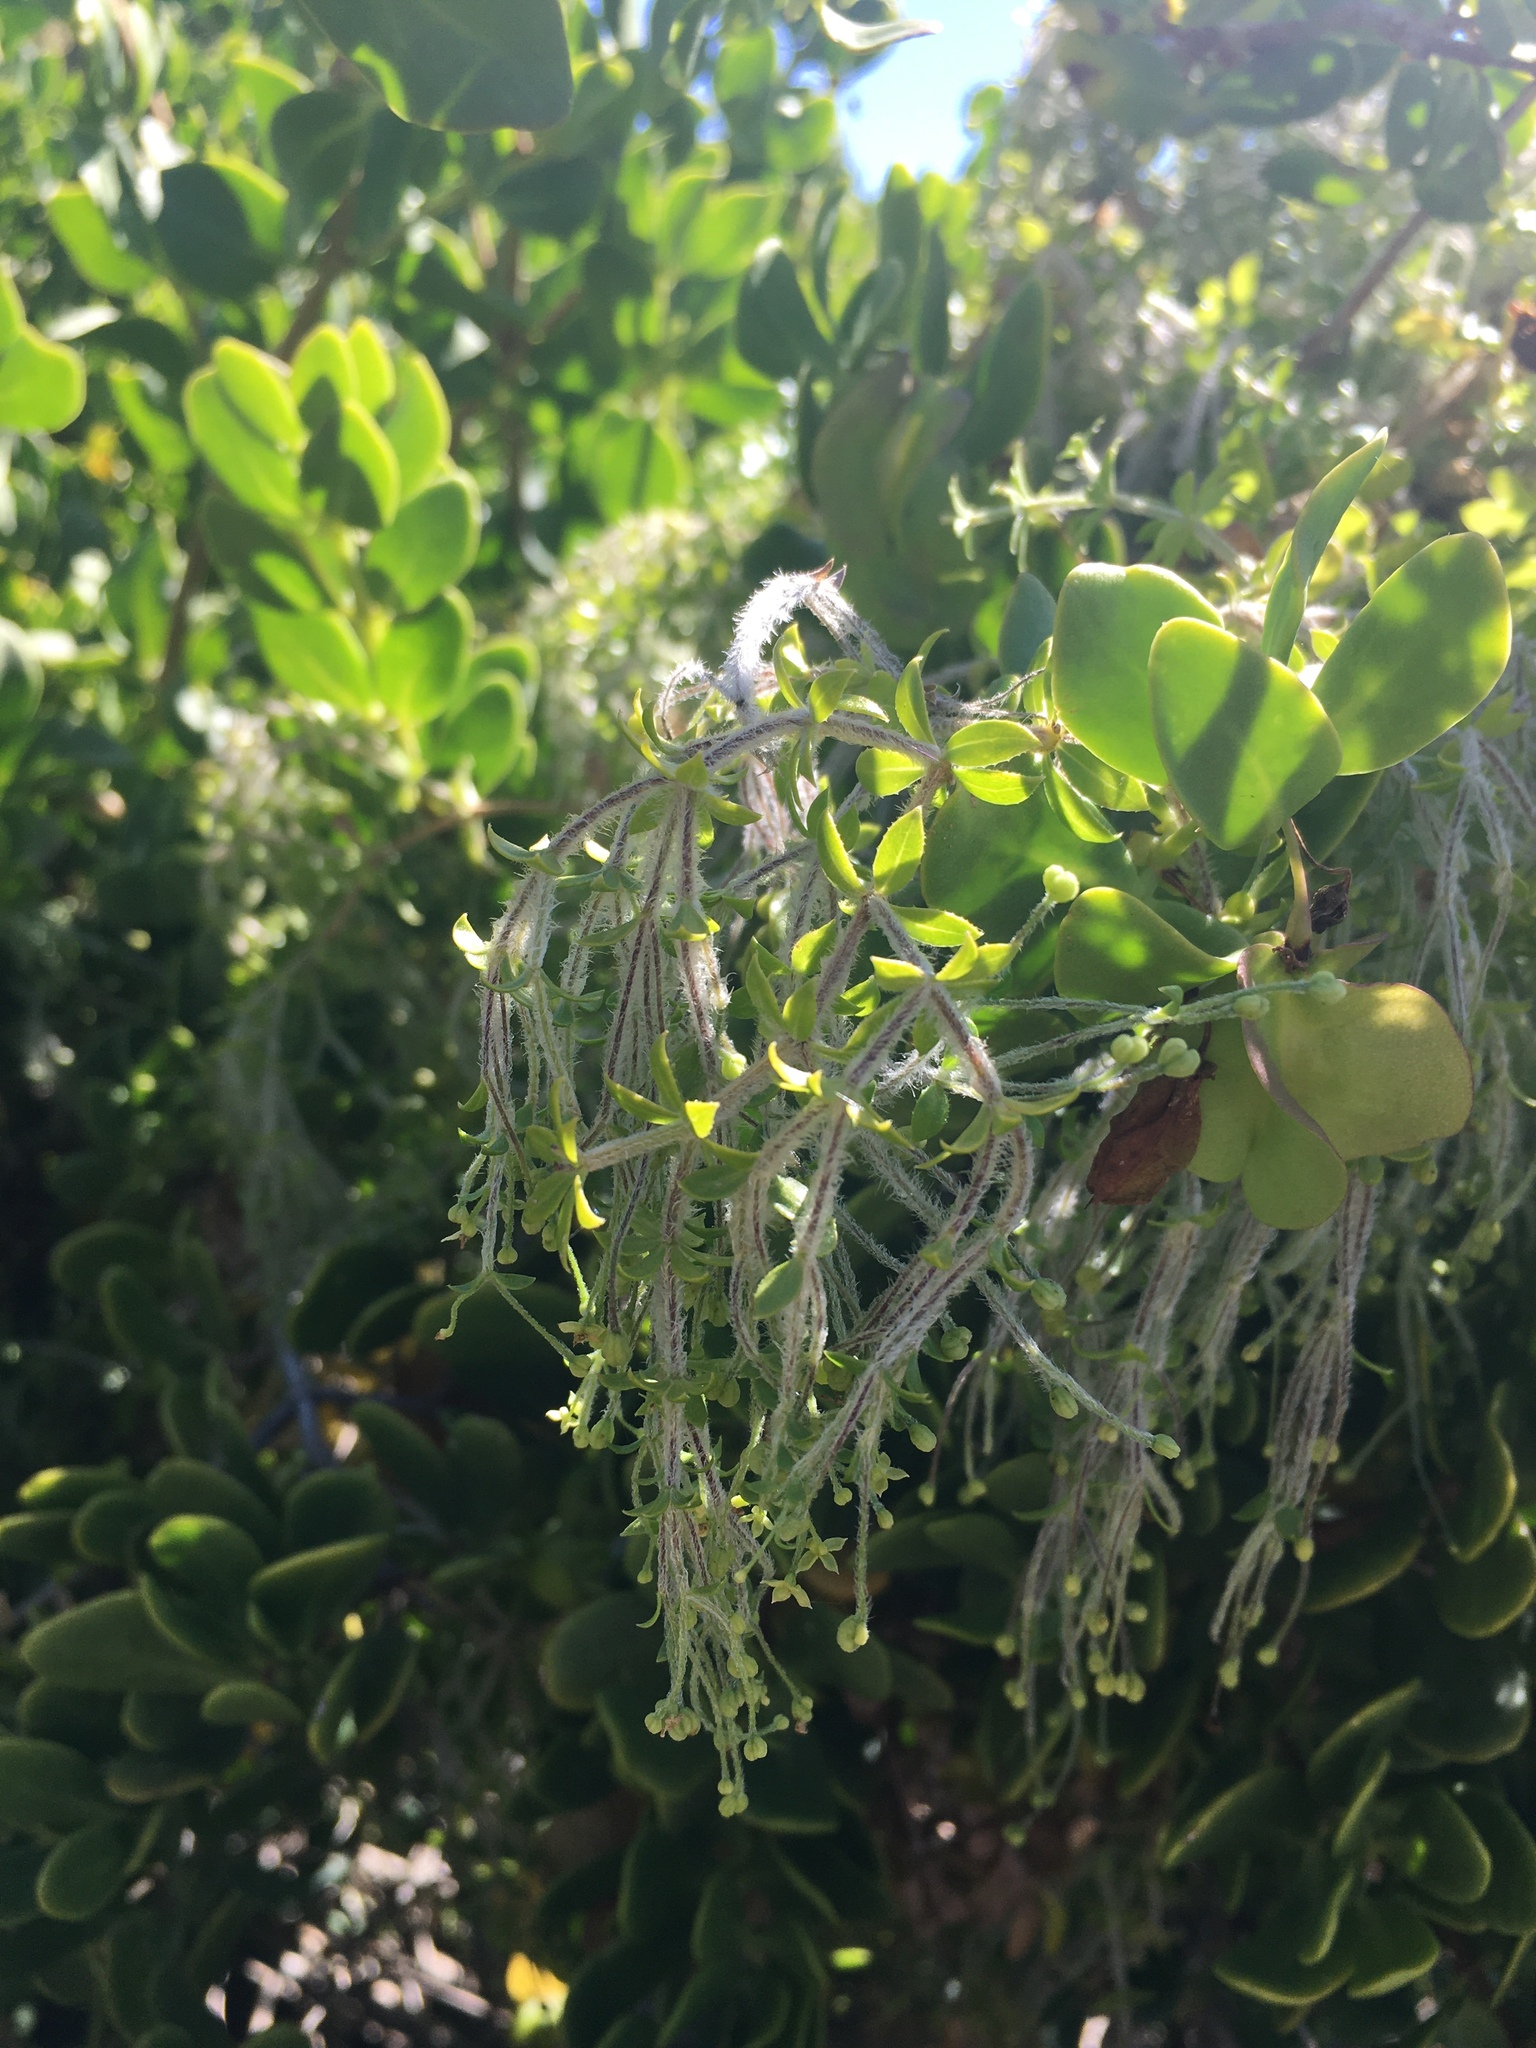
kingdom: Plantae
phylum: Tracheophyta
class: Magnoliopsida
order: Gentianales
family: Rubiaceae
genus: Galium
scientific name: Galium tomentosum
